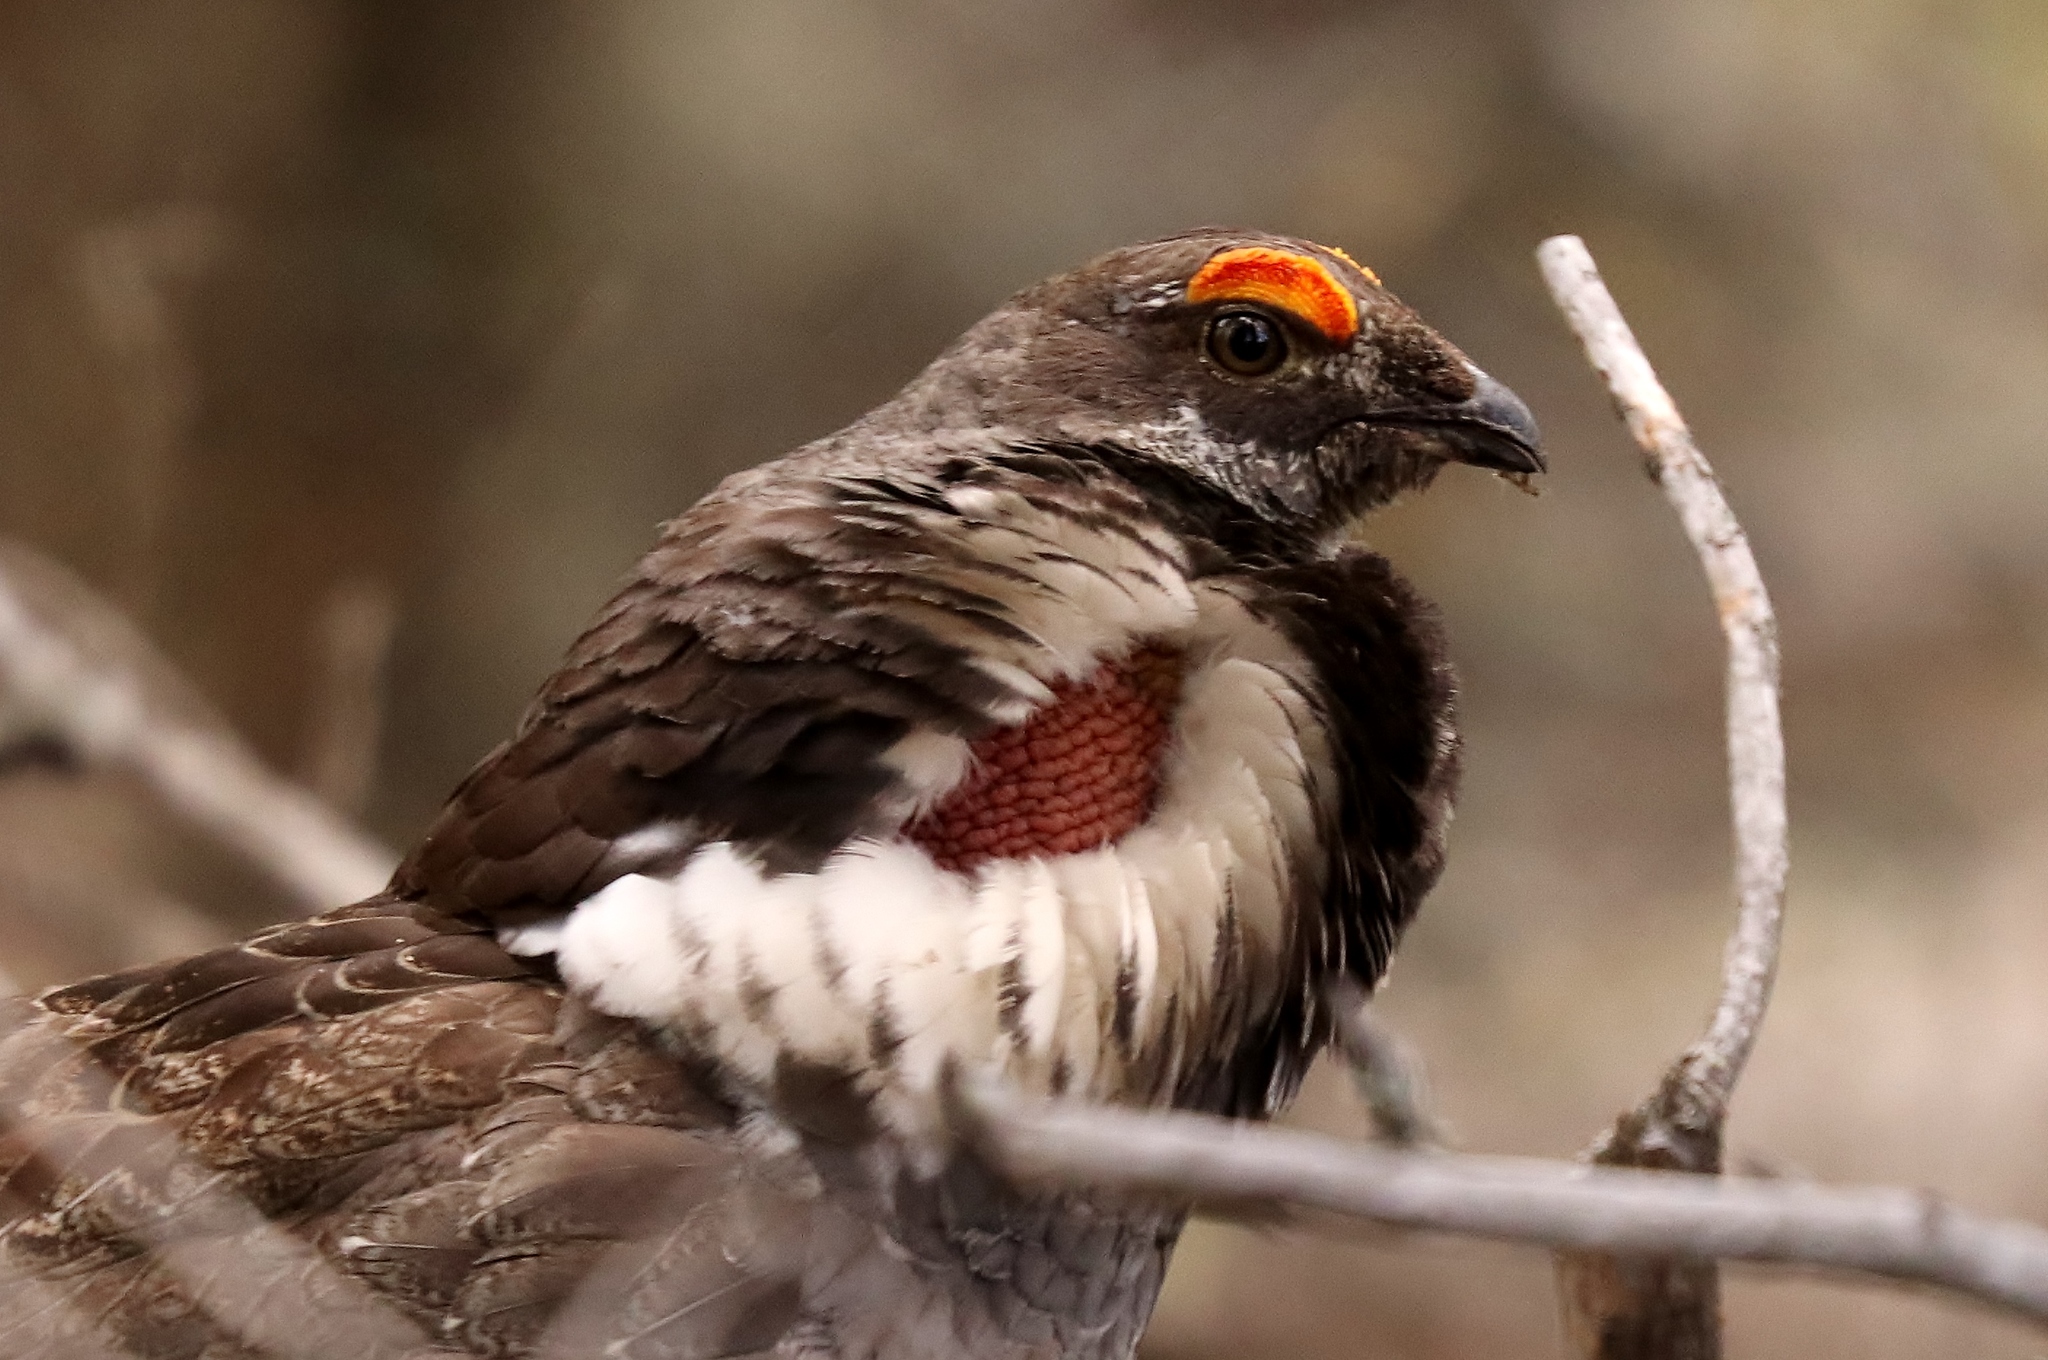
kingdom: Animalia
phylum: Chordata
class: Aves
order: Galliformes
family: Phasianidae
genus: Dendragapus
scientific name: Dendragapus obscurus
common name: Dusky grouse
